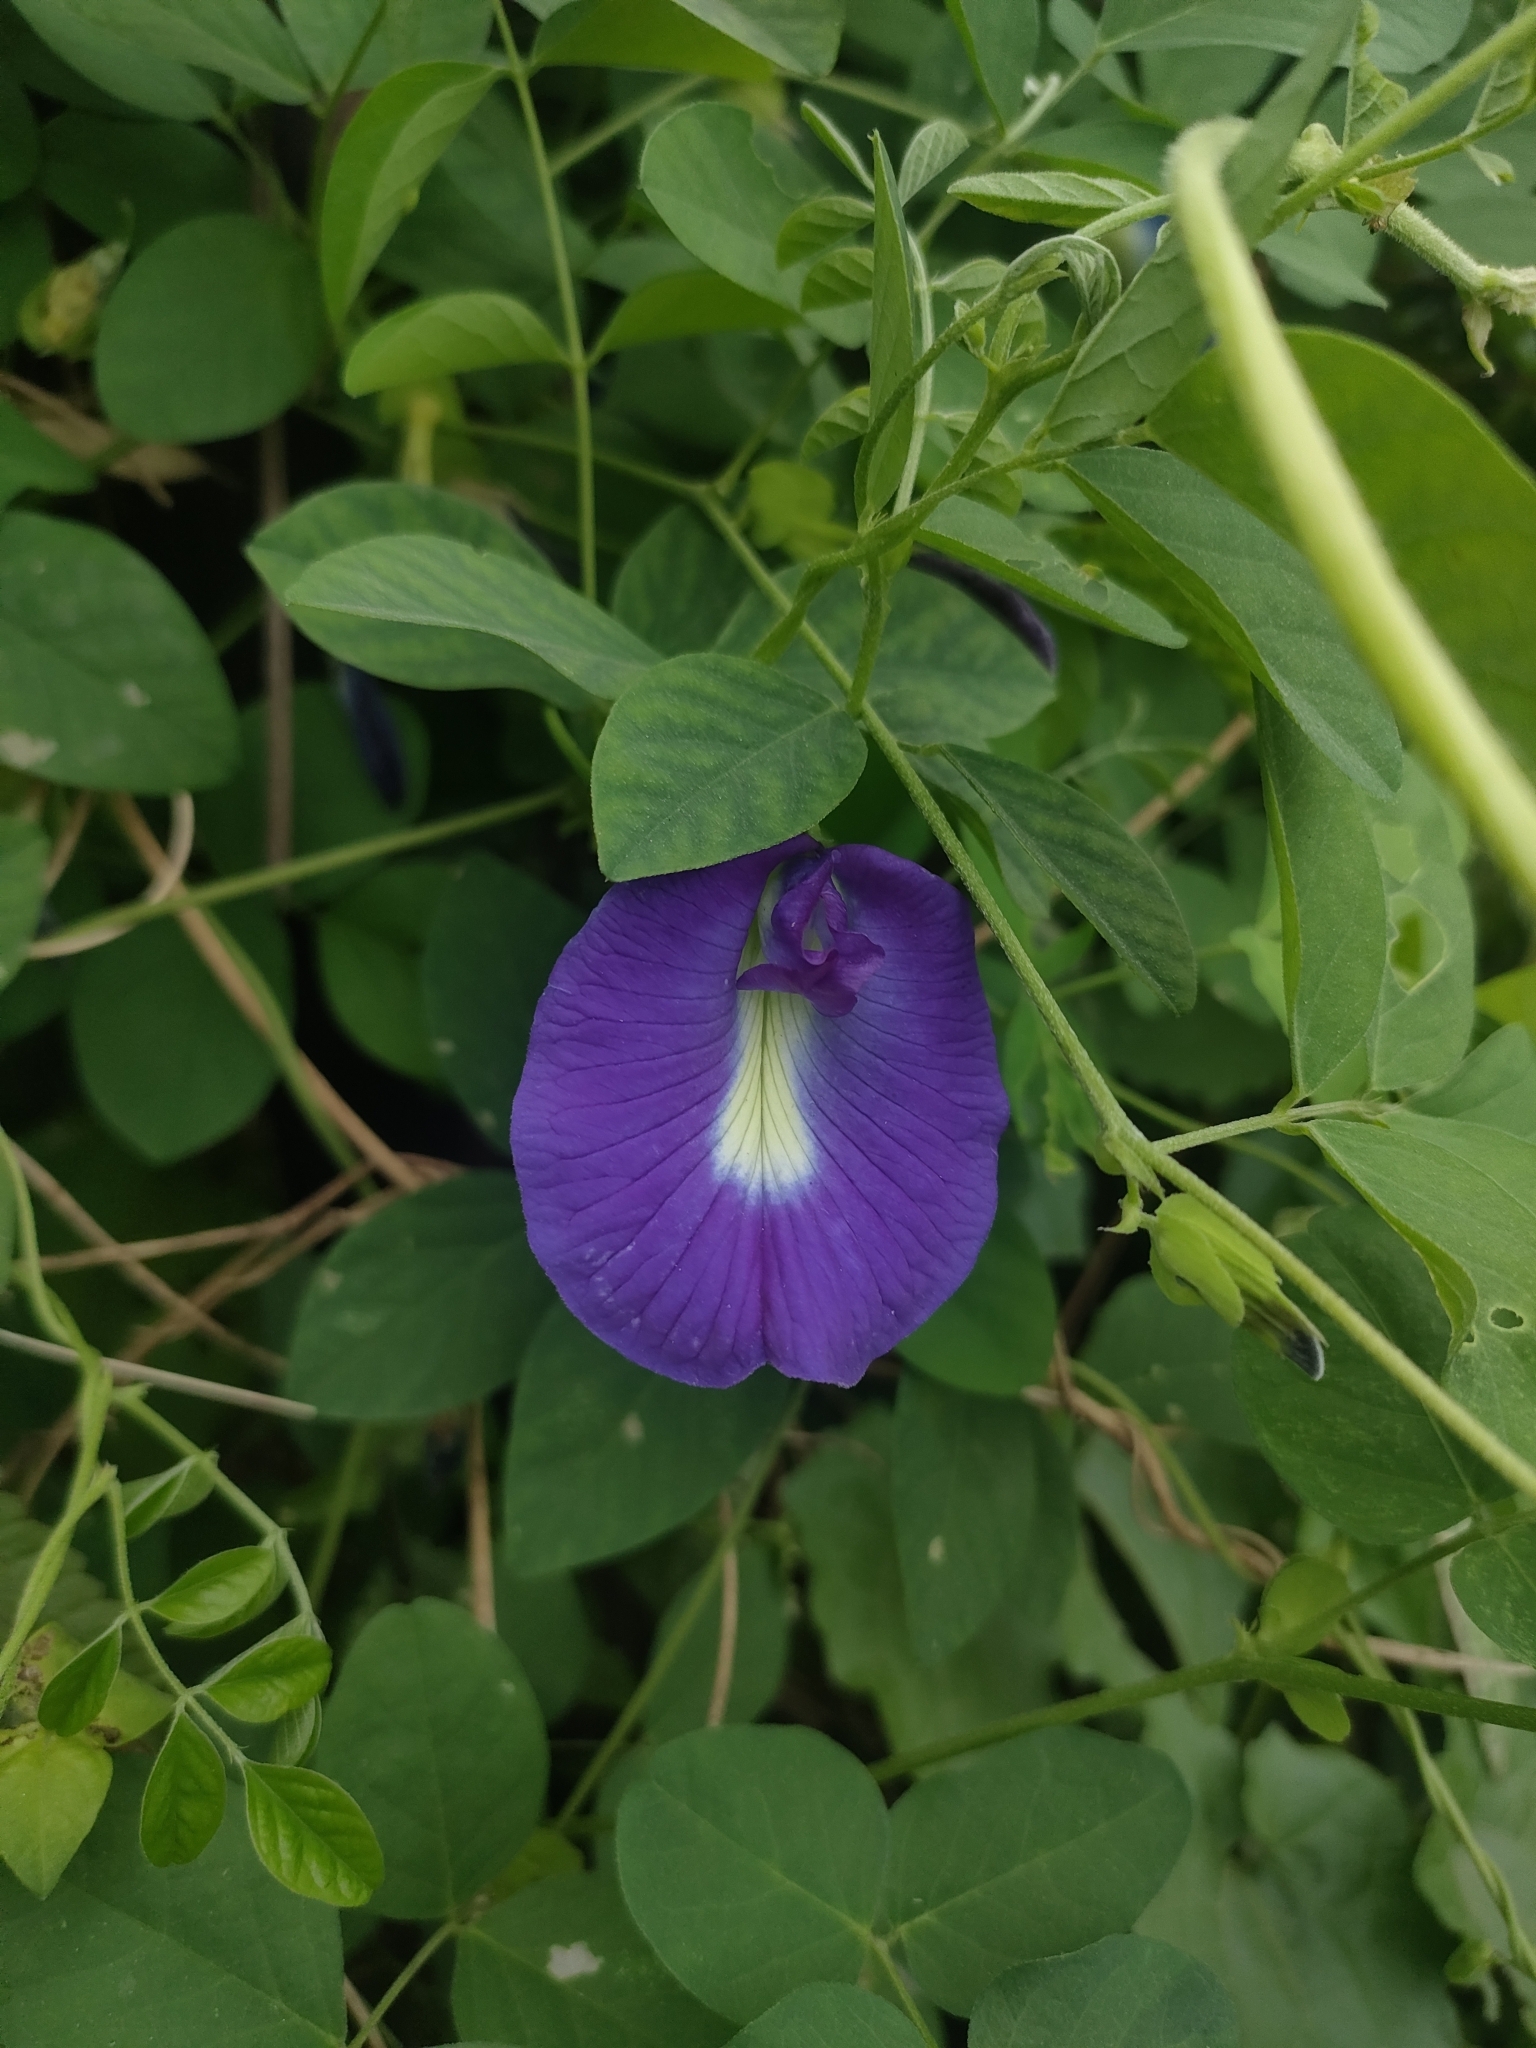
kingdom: Plantae
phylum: Tracheophyta
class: Magnoliopsida
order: Fabales
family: Fabaceae
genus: Clitoria
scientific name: Clitoria ternatea
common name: Asian pigeonwings
